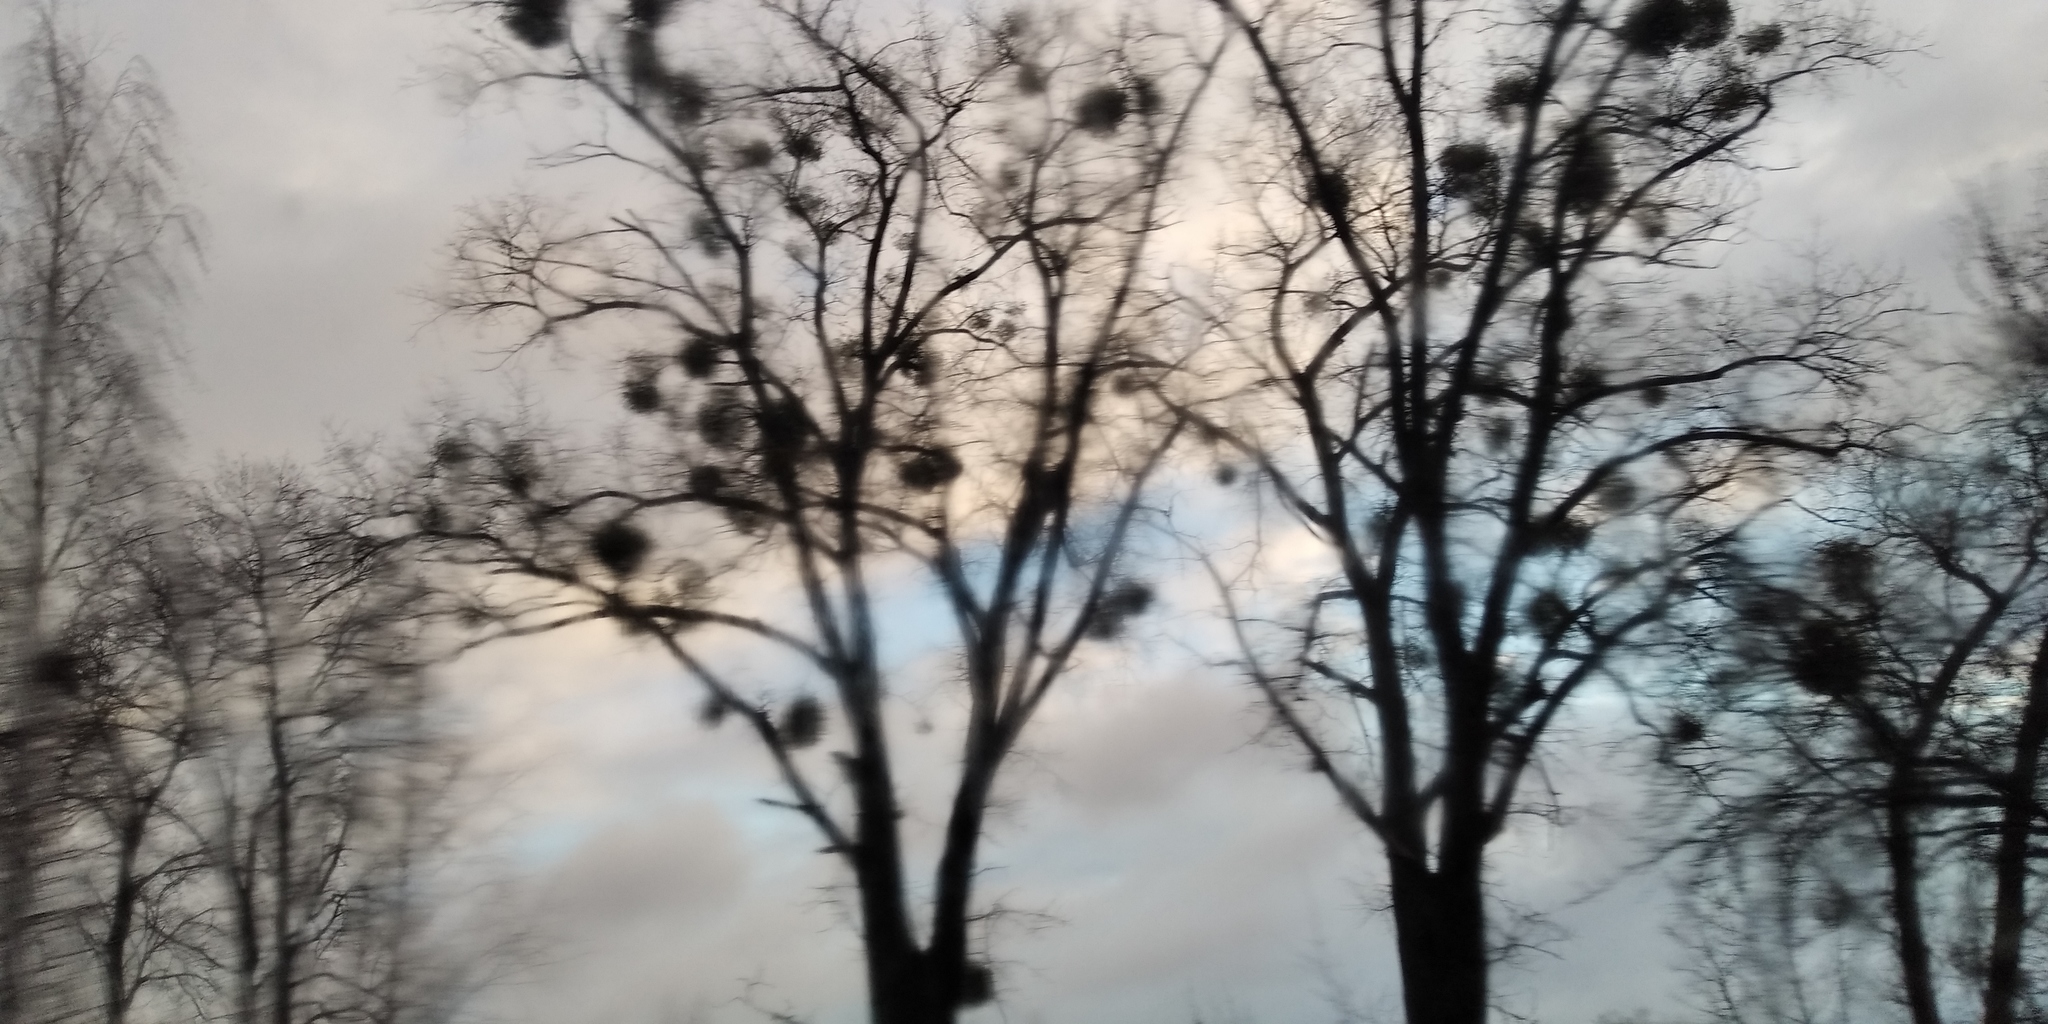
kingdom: Plantae
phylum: Tracheophyta
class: Magnoliopsida
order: Santalales
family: Viscaceae
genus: Viscum
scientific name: Viscum album
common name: Mistletoe
